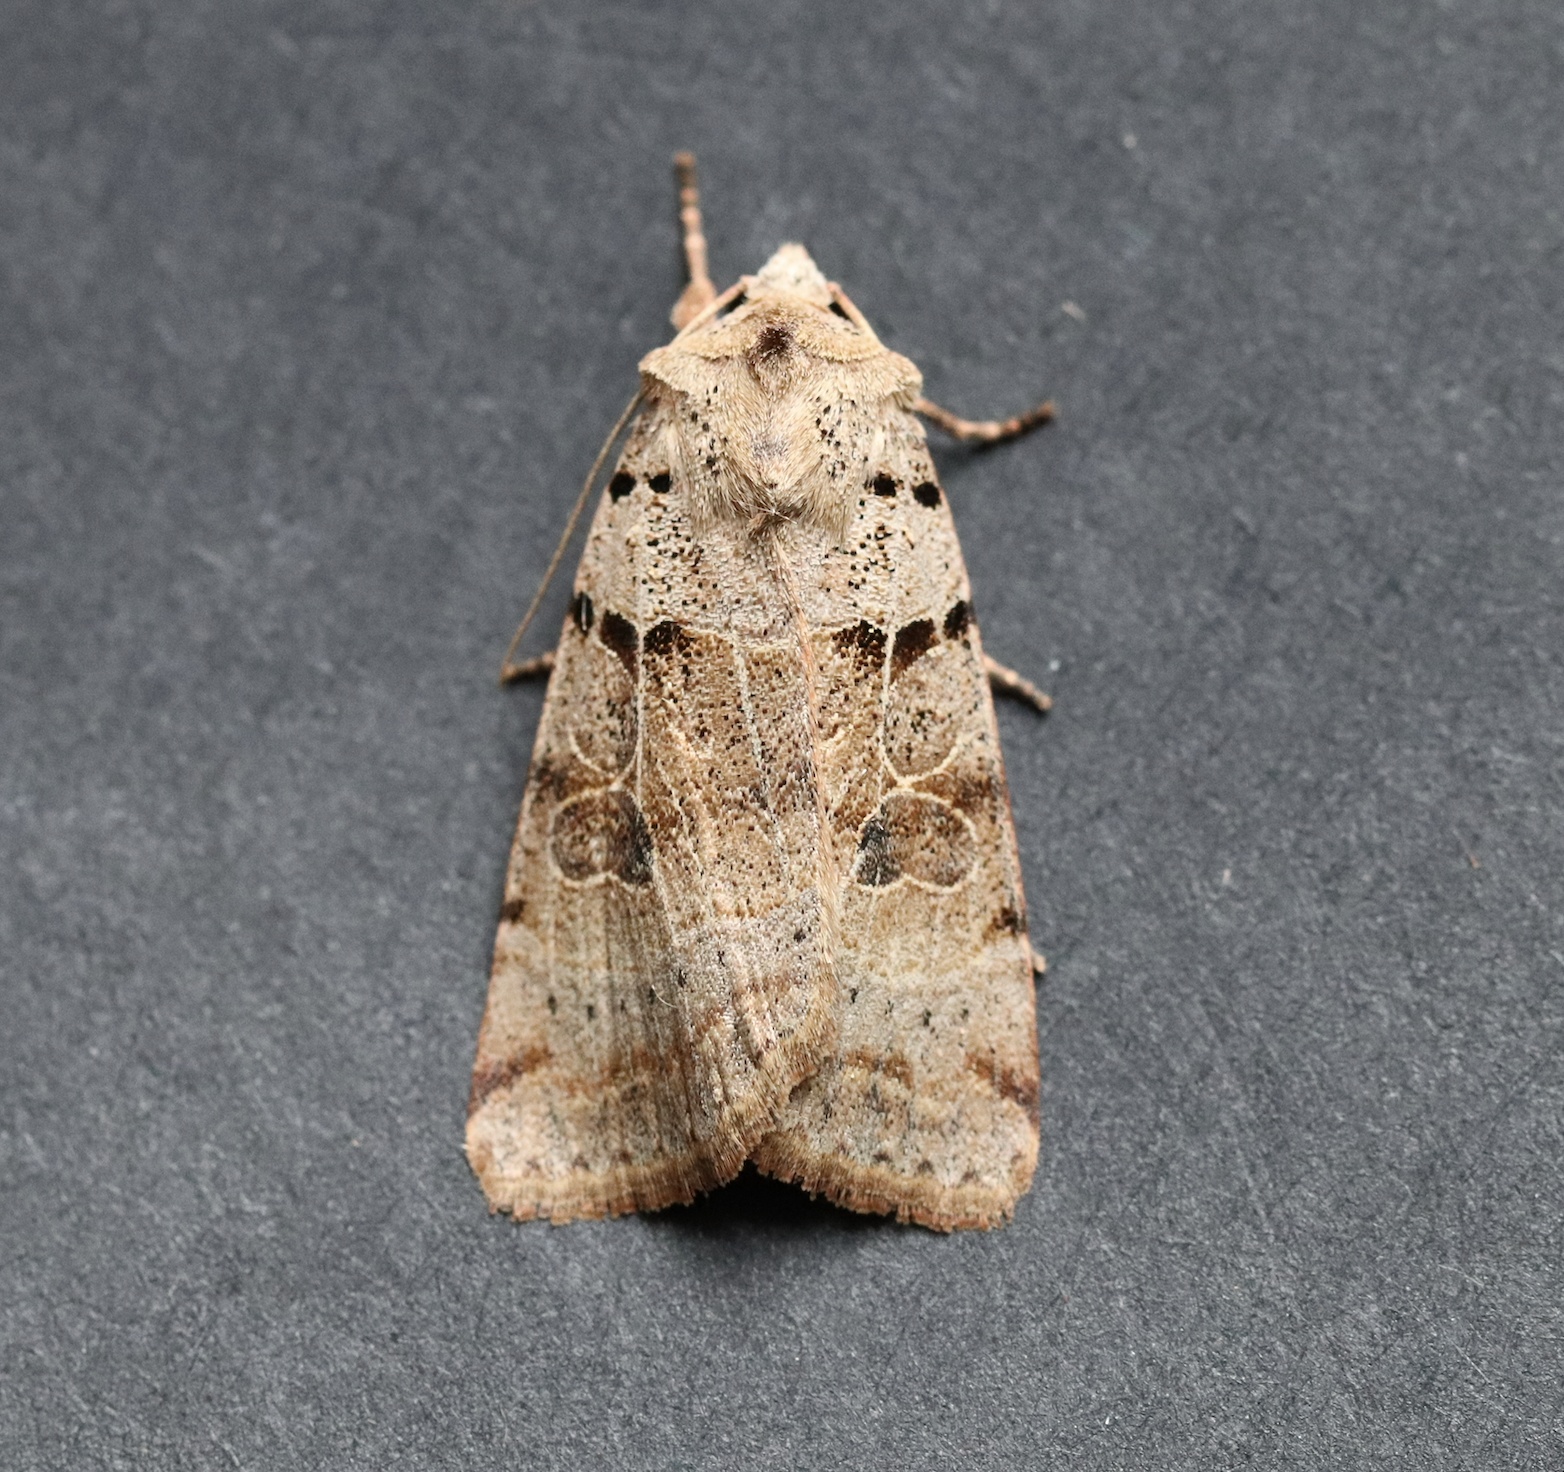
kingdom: Animalia
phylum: Arthropoda
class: Insecta
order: Lepidoptera
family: Noctuidae
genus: Eugnorisma
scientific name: Eugnorisma depuncta
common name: Plain clay
